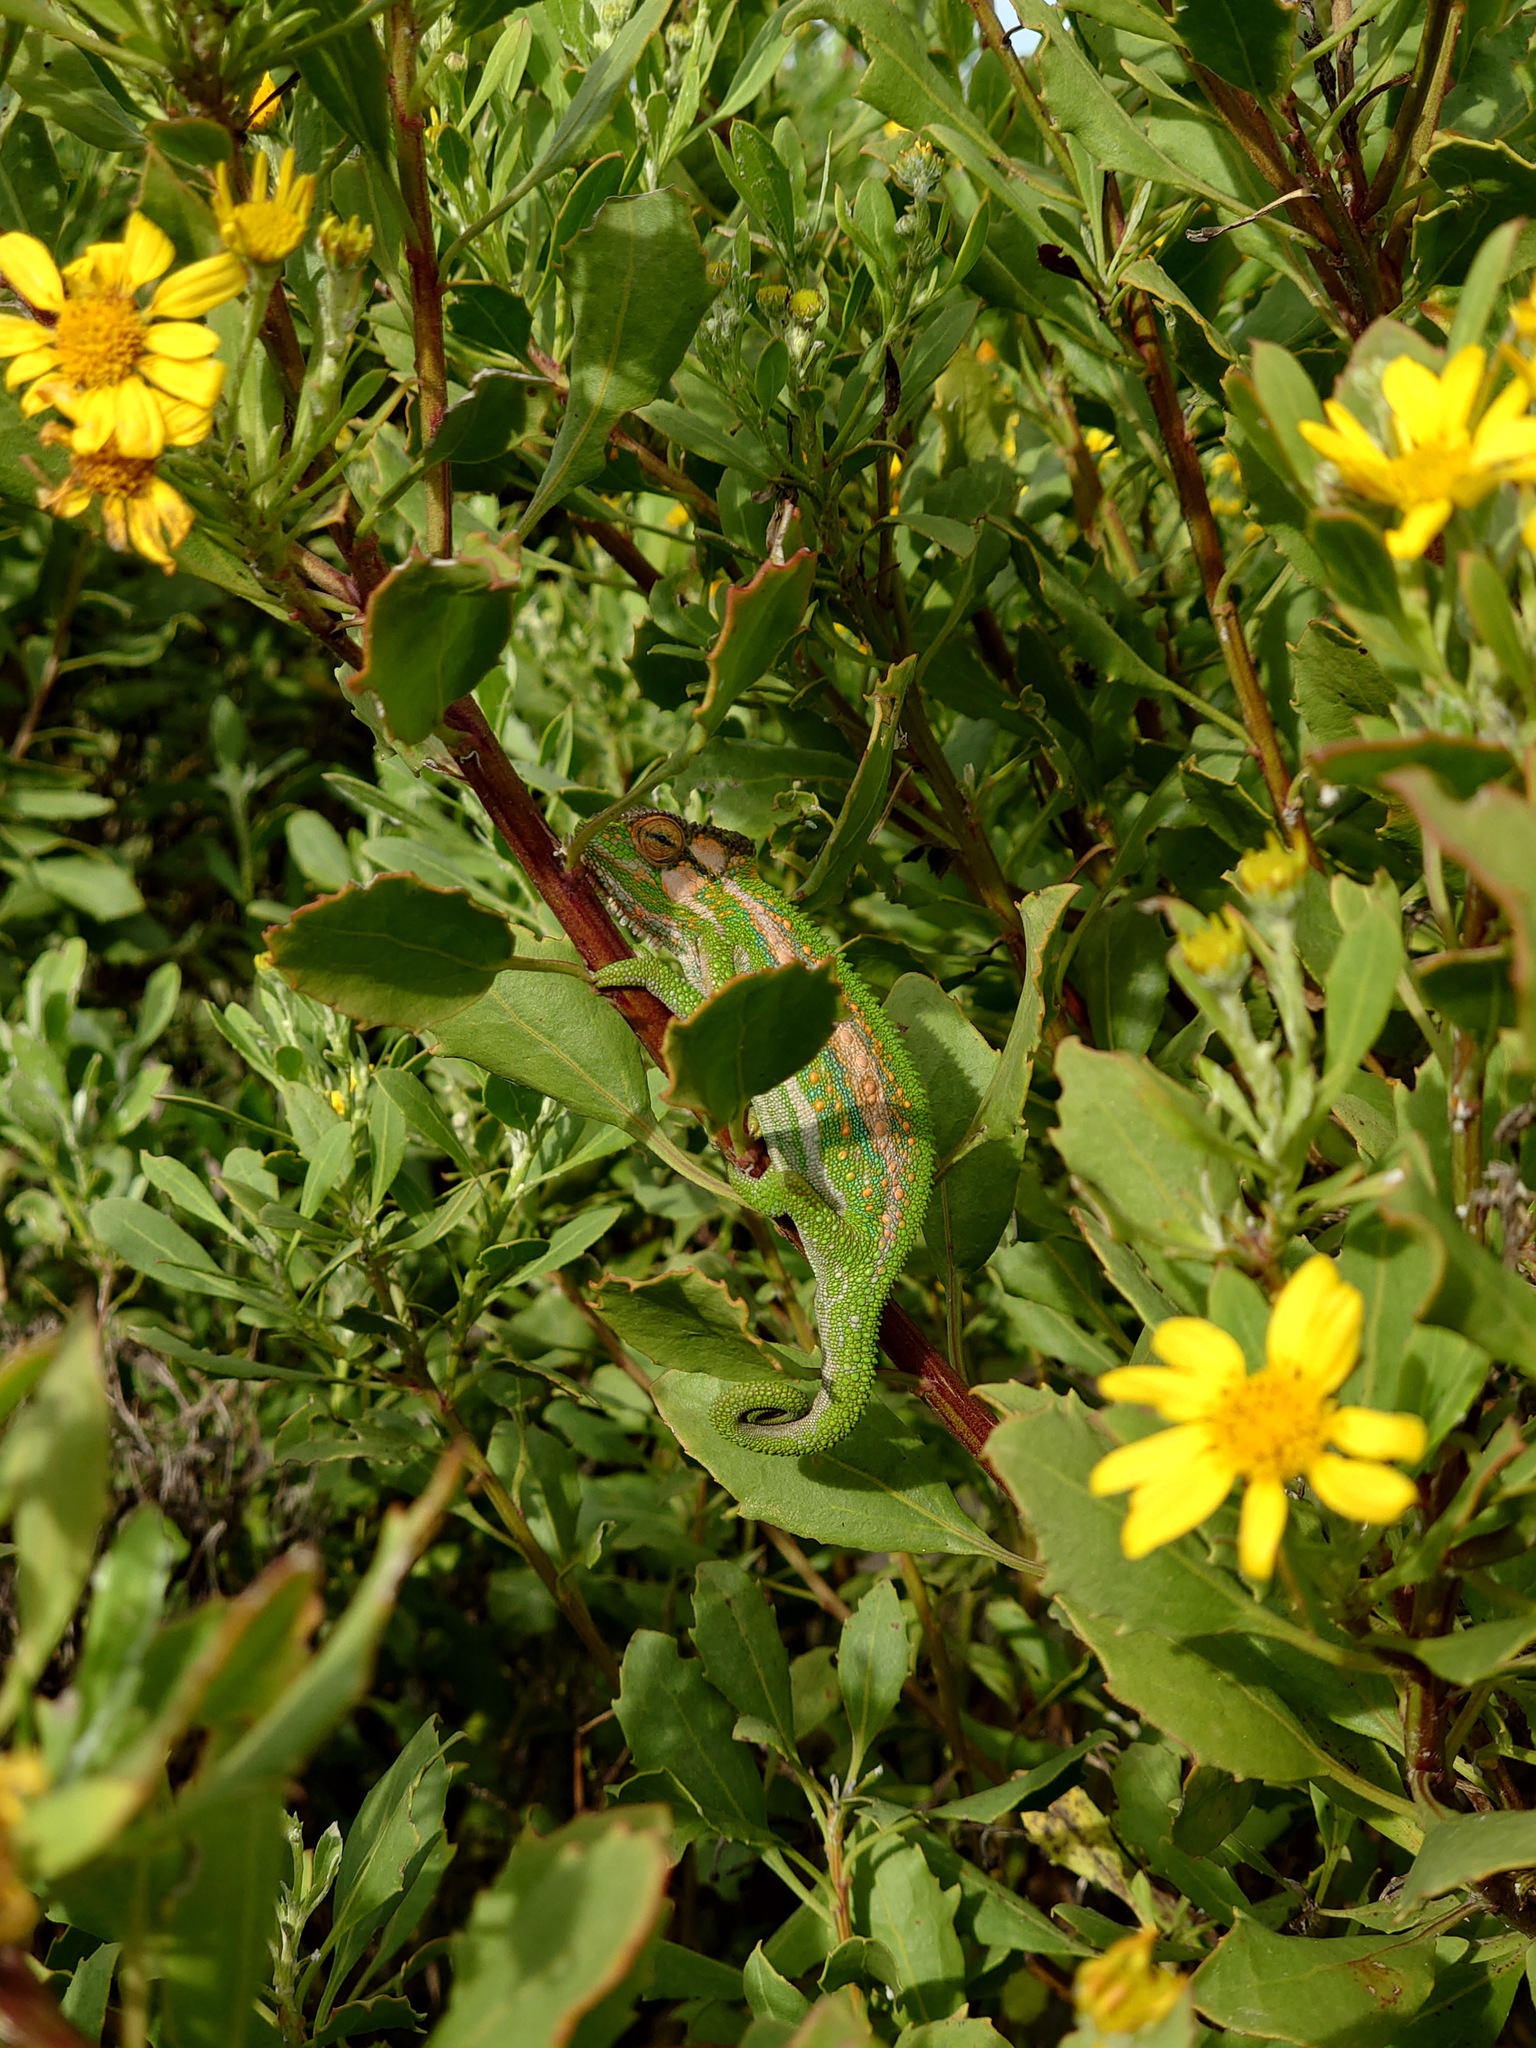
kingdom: Animalia
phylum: Chordata
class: Squamata
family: Chamaeleonidae
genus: Bradypodion
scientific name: Bradypodion pumilum
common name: Cape dwarf chameleon
